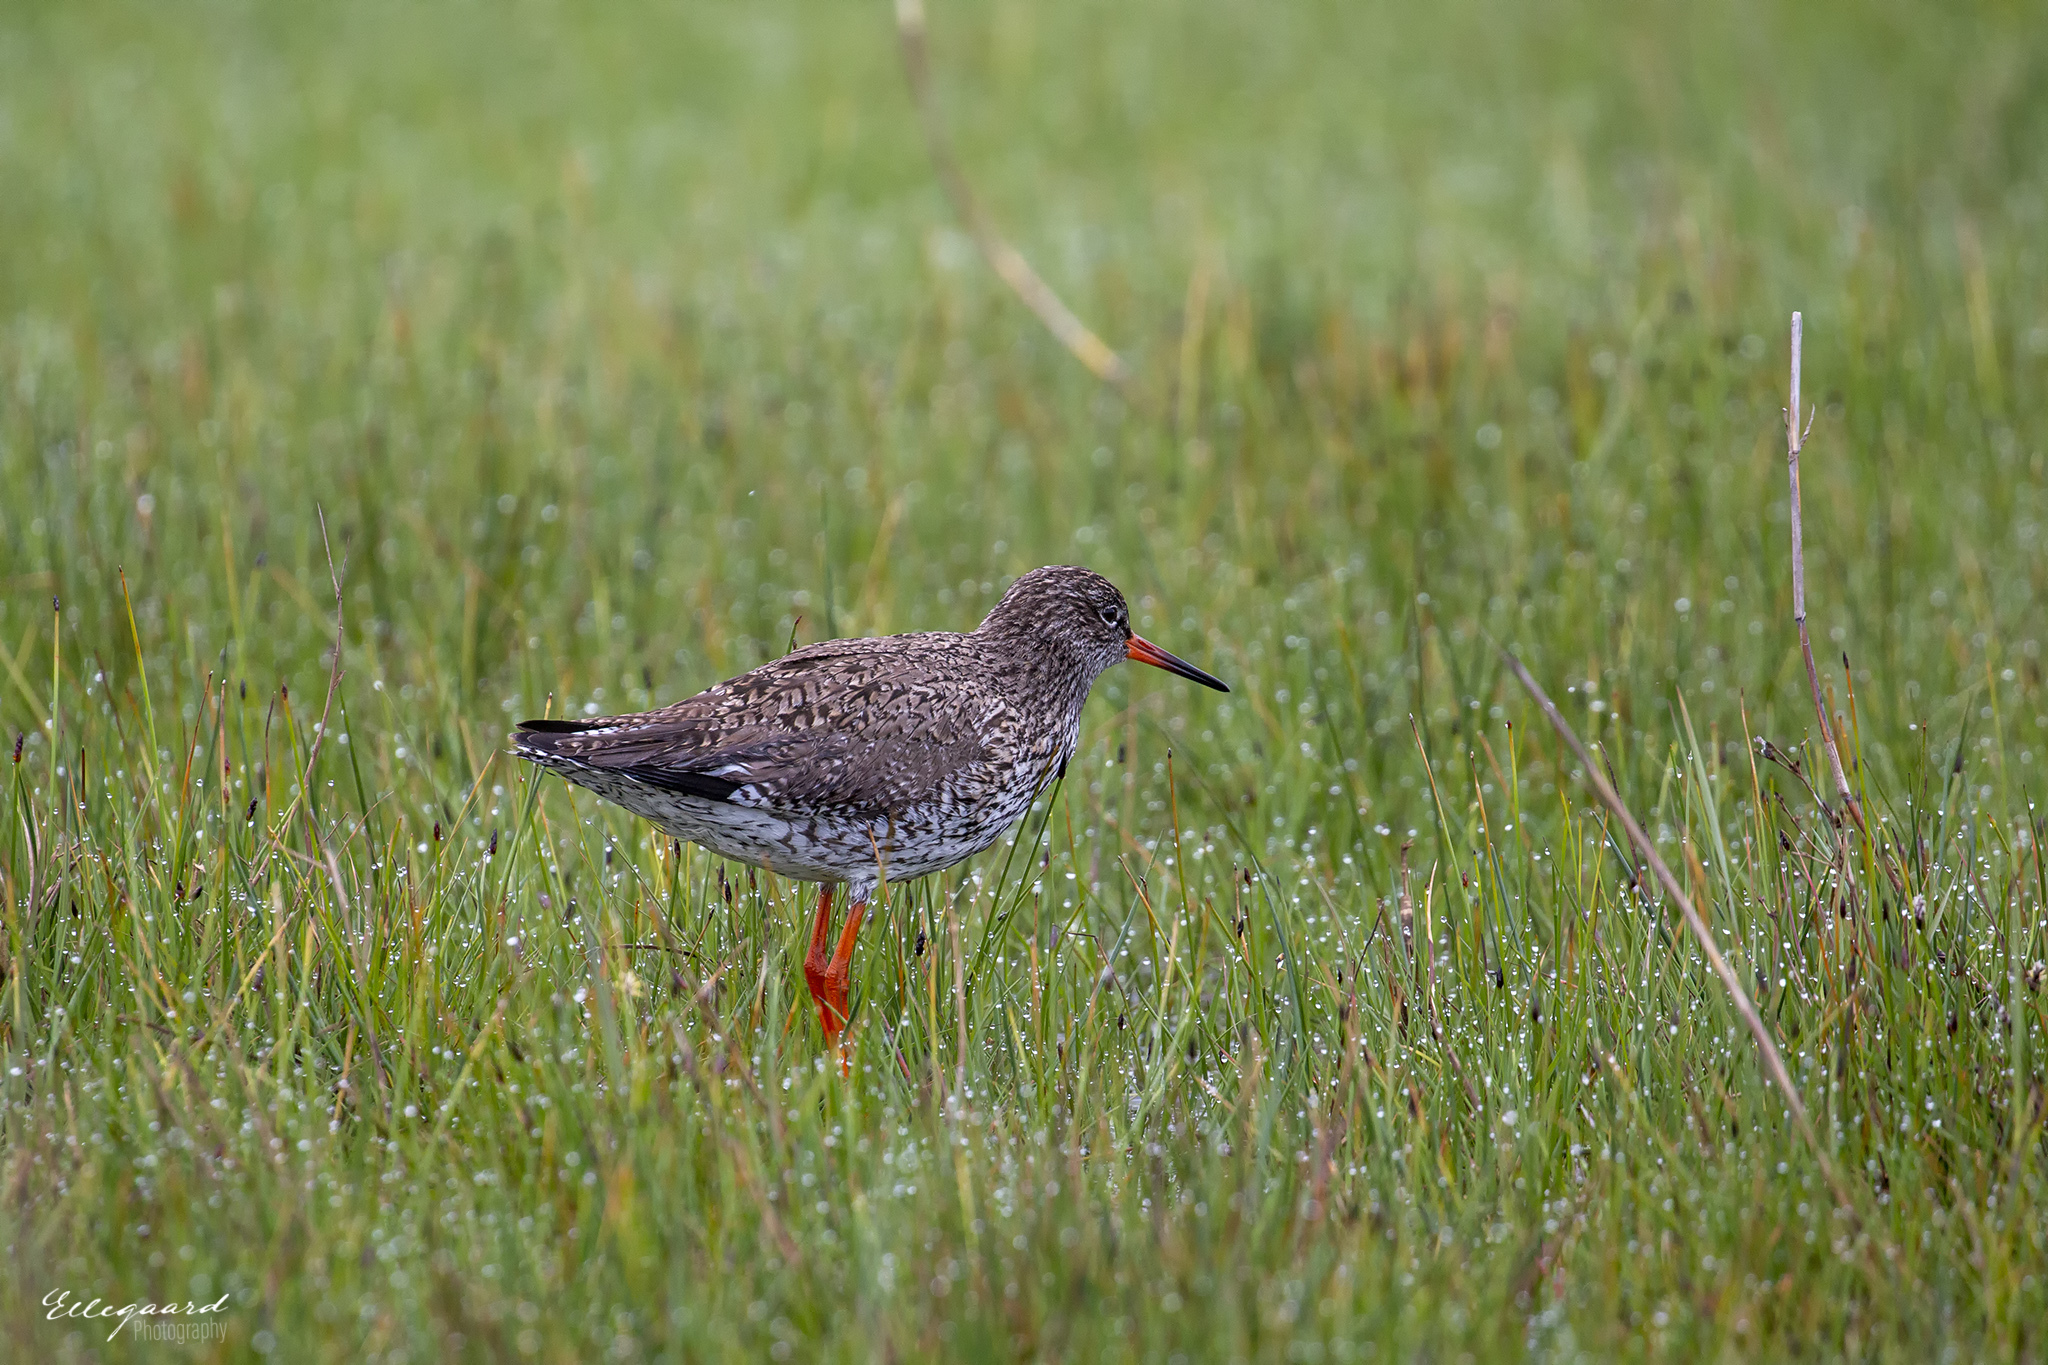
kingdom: Animalia
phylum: Chordata
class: Aves
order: Charadriiformes
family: Scolopacidae
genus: Tringa
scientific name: Tringa totanus
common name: Common redshank
